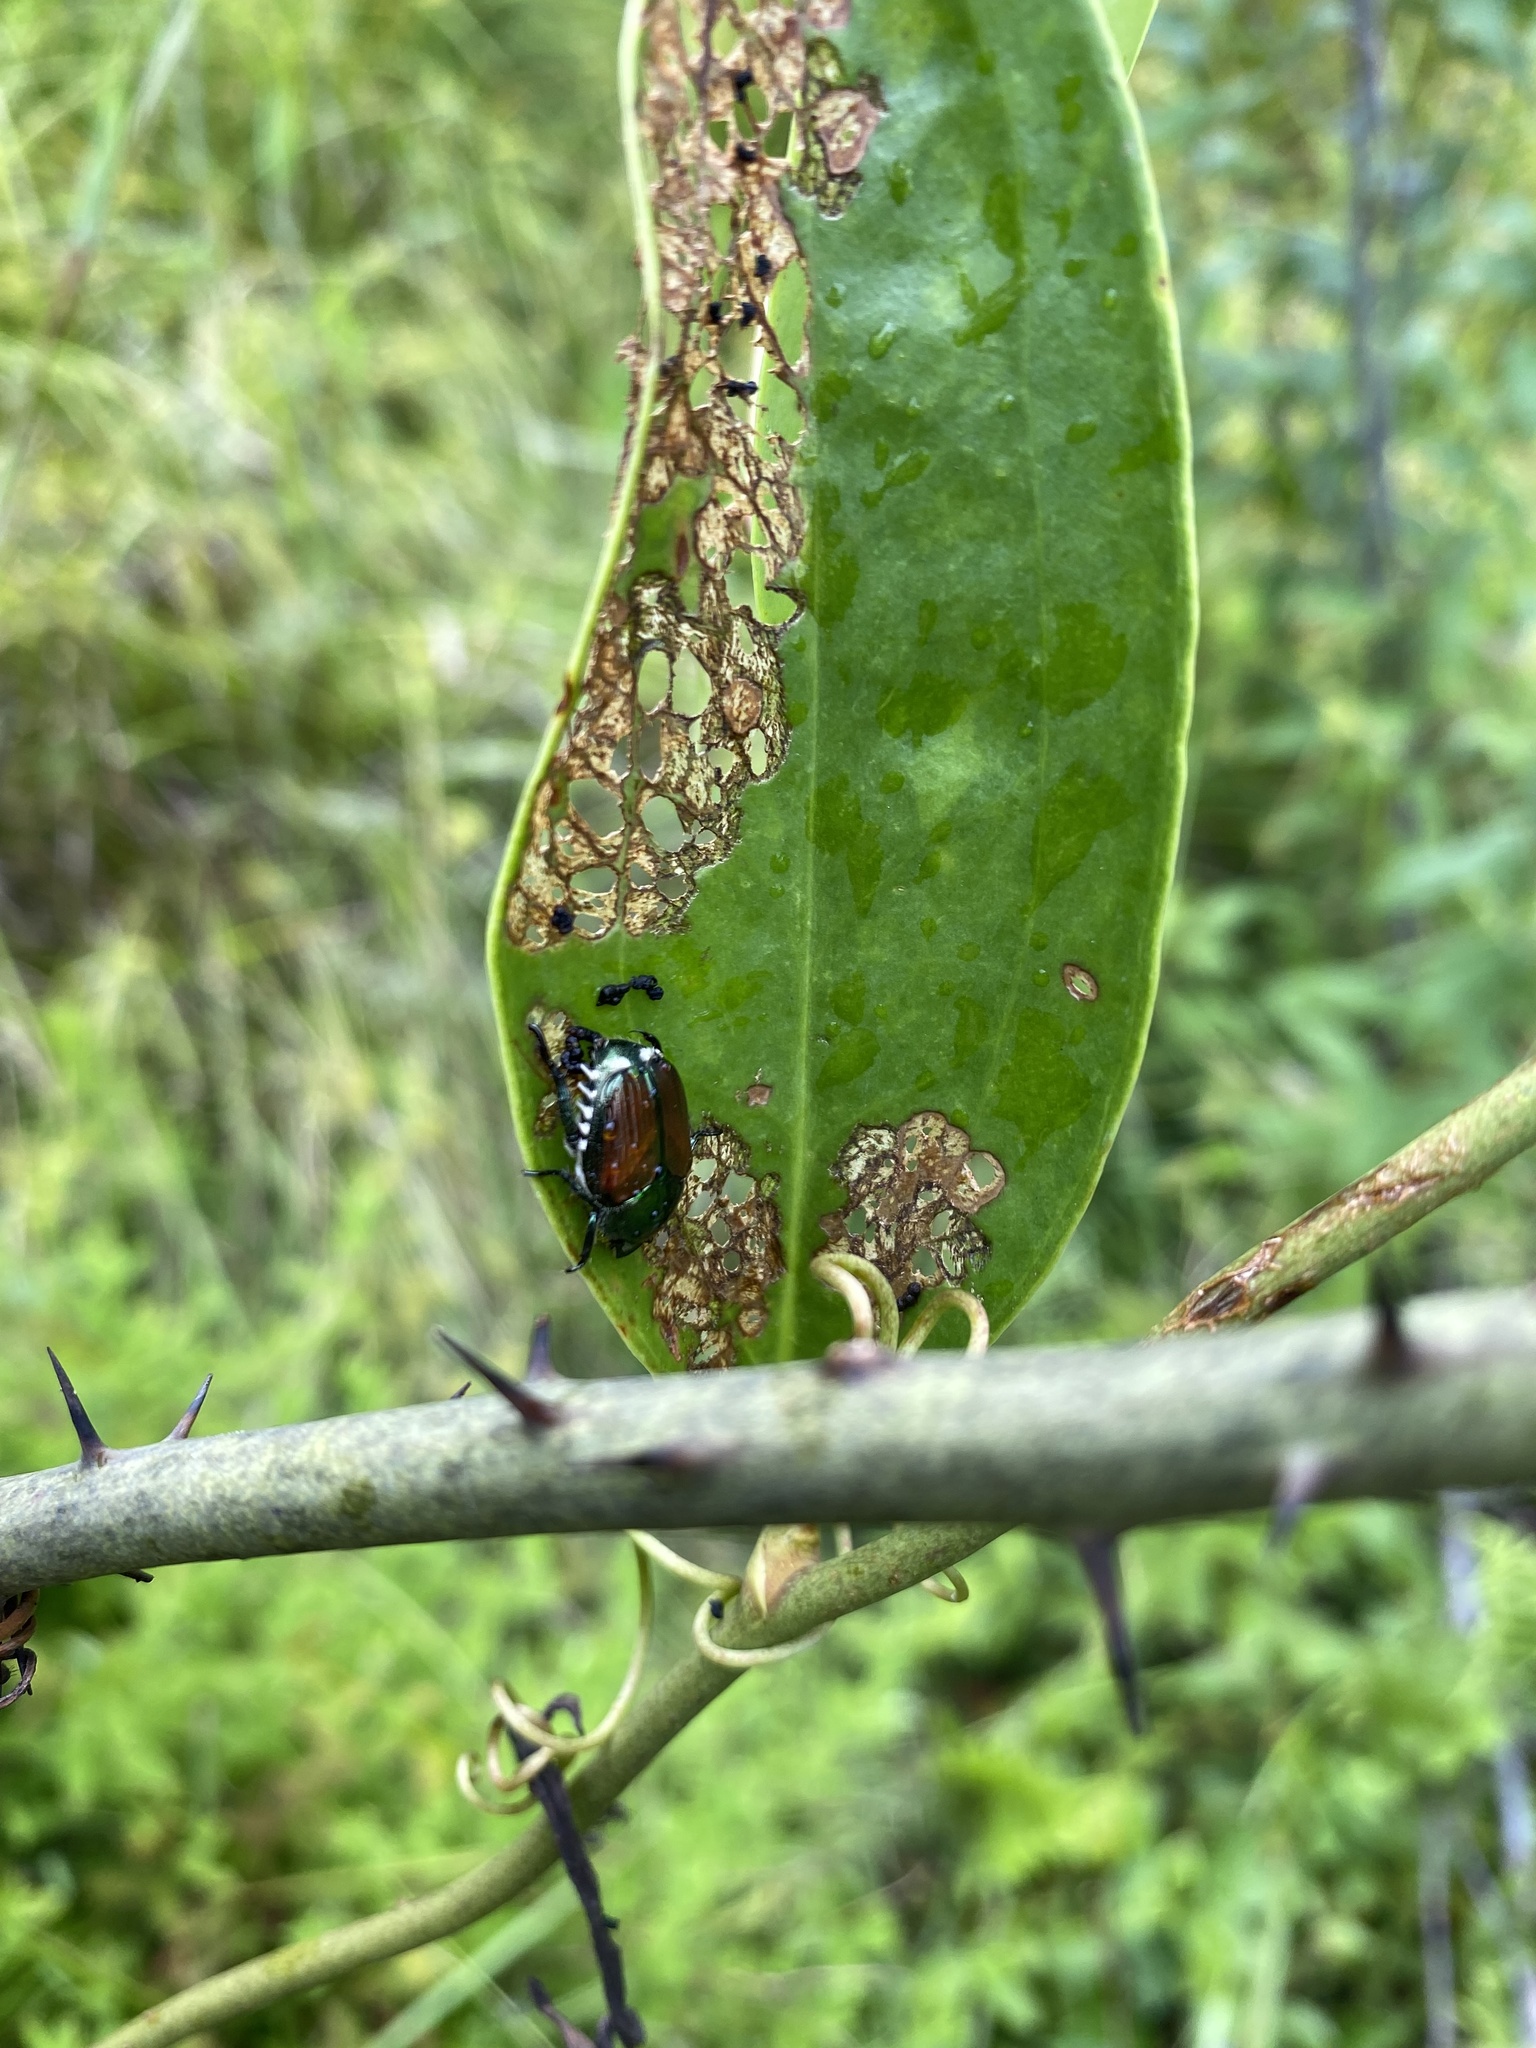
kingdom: Animalia
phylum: Arthropoda
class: Insecta
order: Coleoptera
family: Scarabaeidae
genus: Popillia
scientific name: Popillia japonica
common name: Japanese beetle
